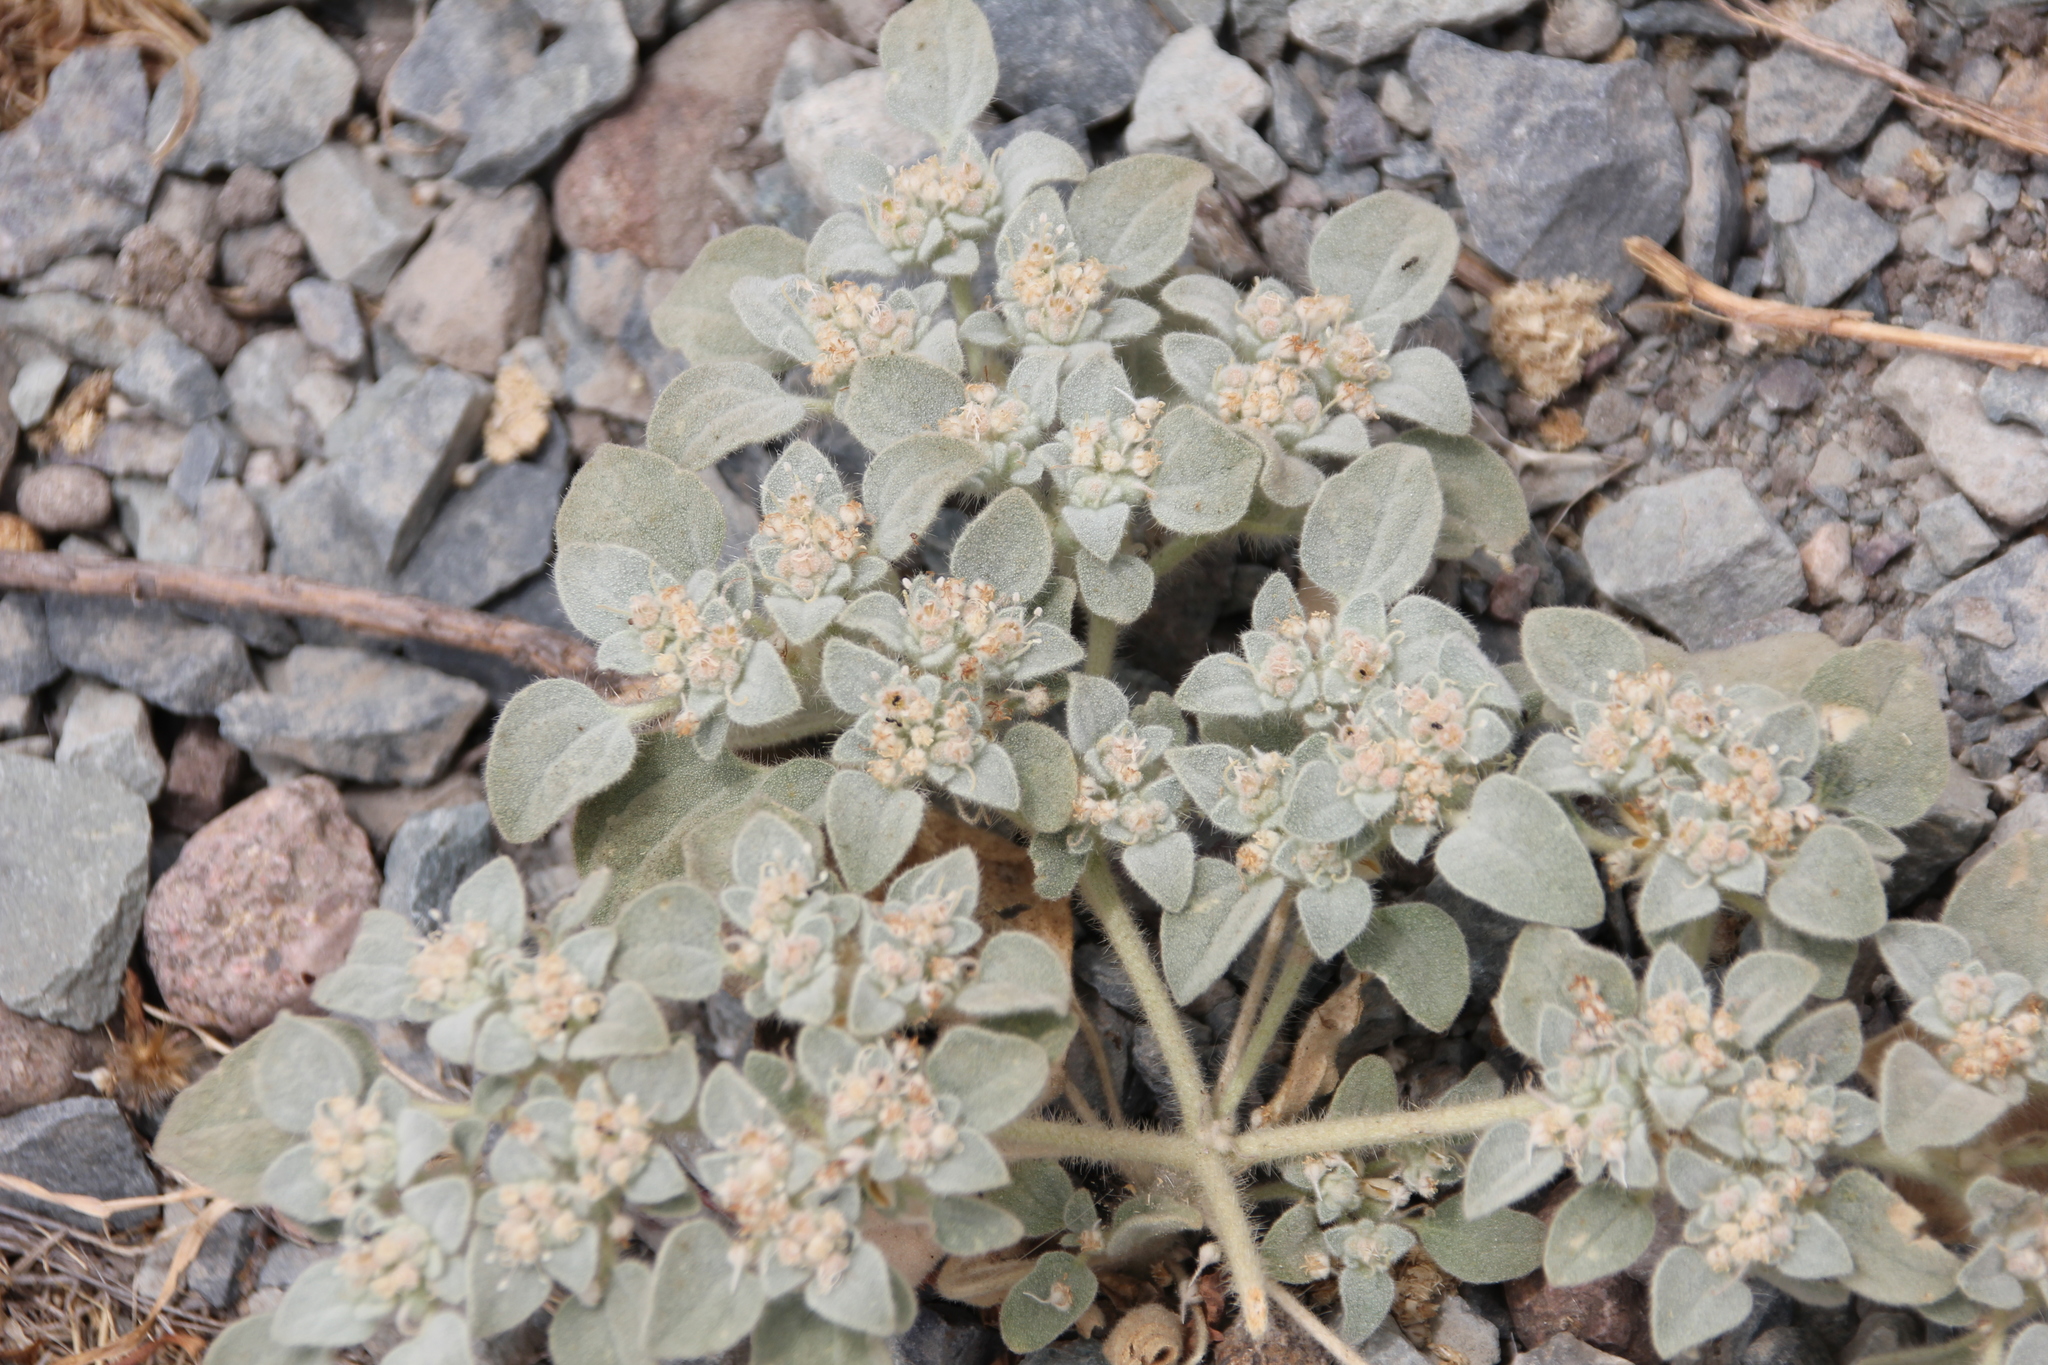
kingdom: Plantae
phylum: Tracheophyta
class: Magnoliopsida
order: Malpighiales
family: Euphorbiaceae
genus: Croton
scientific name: Croton setiger
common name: Dove weed
